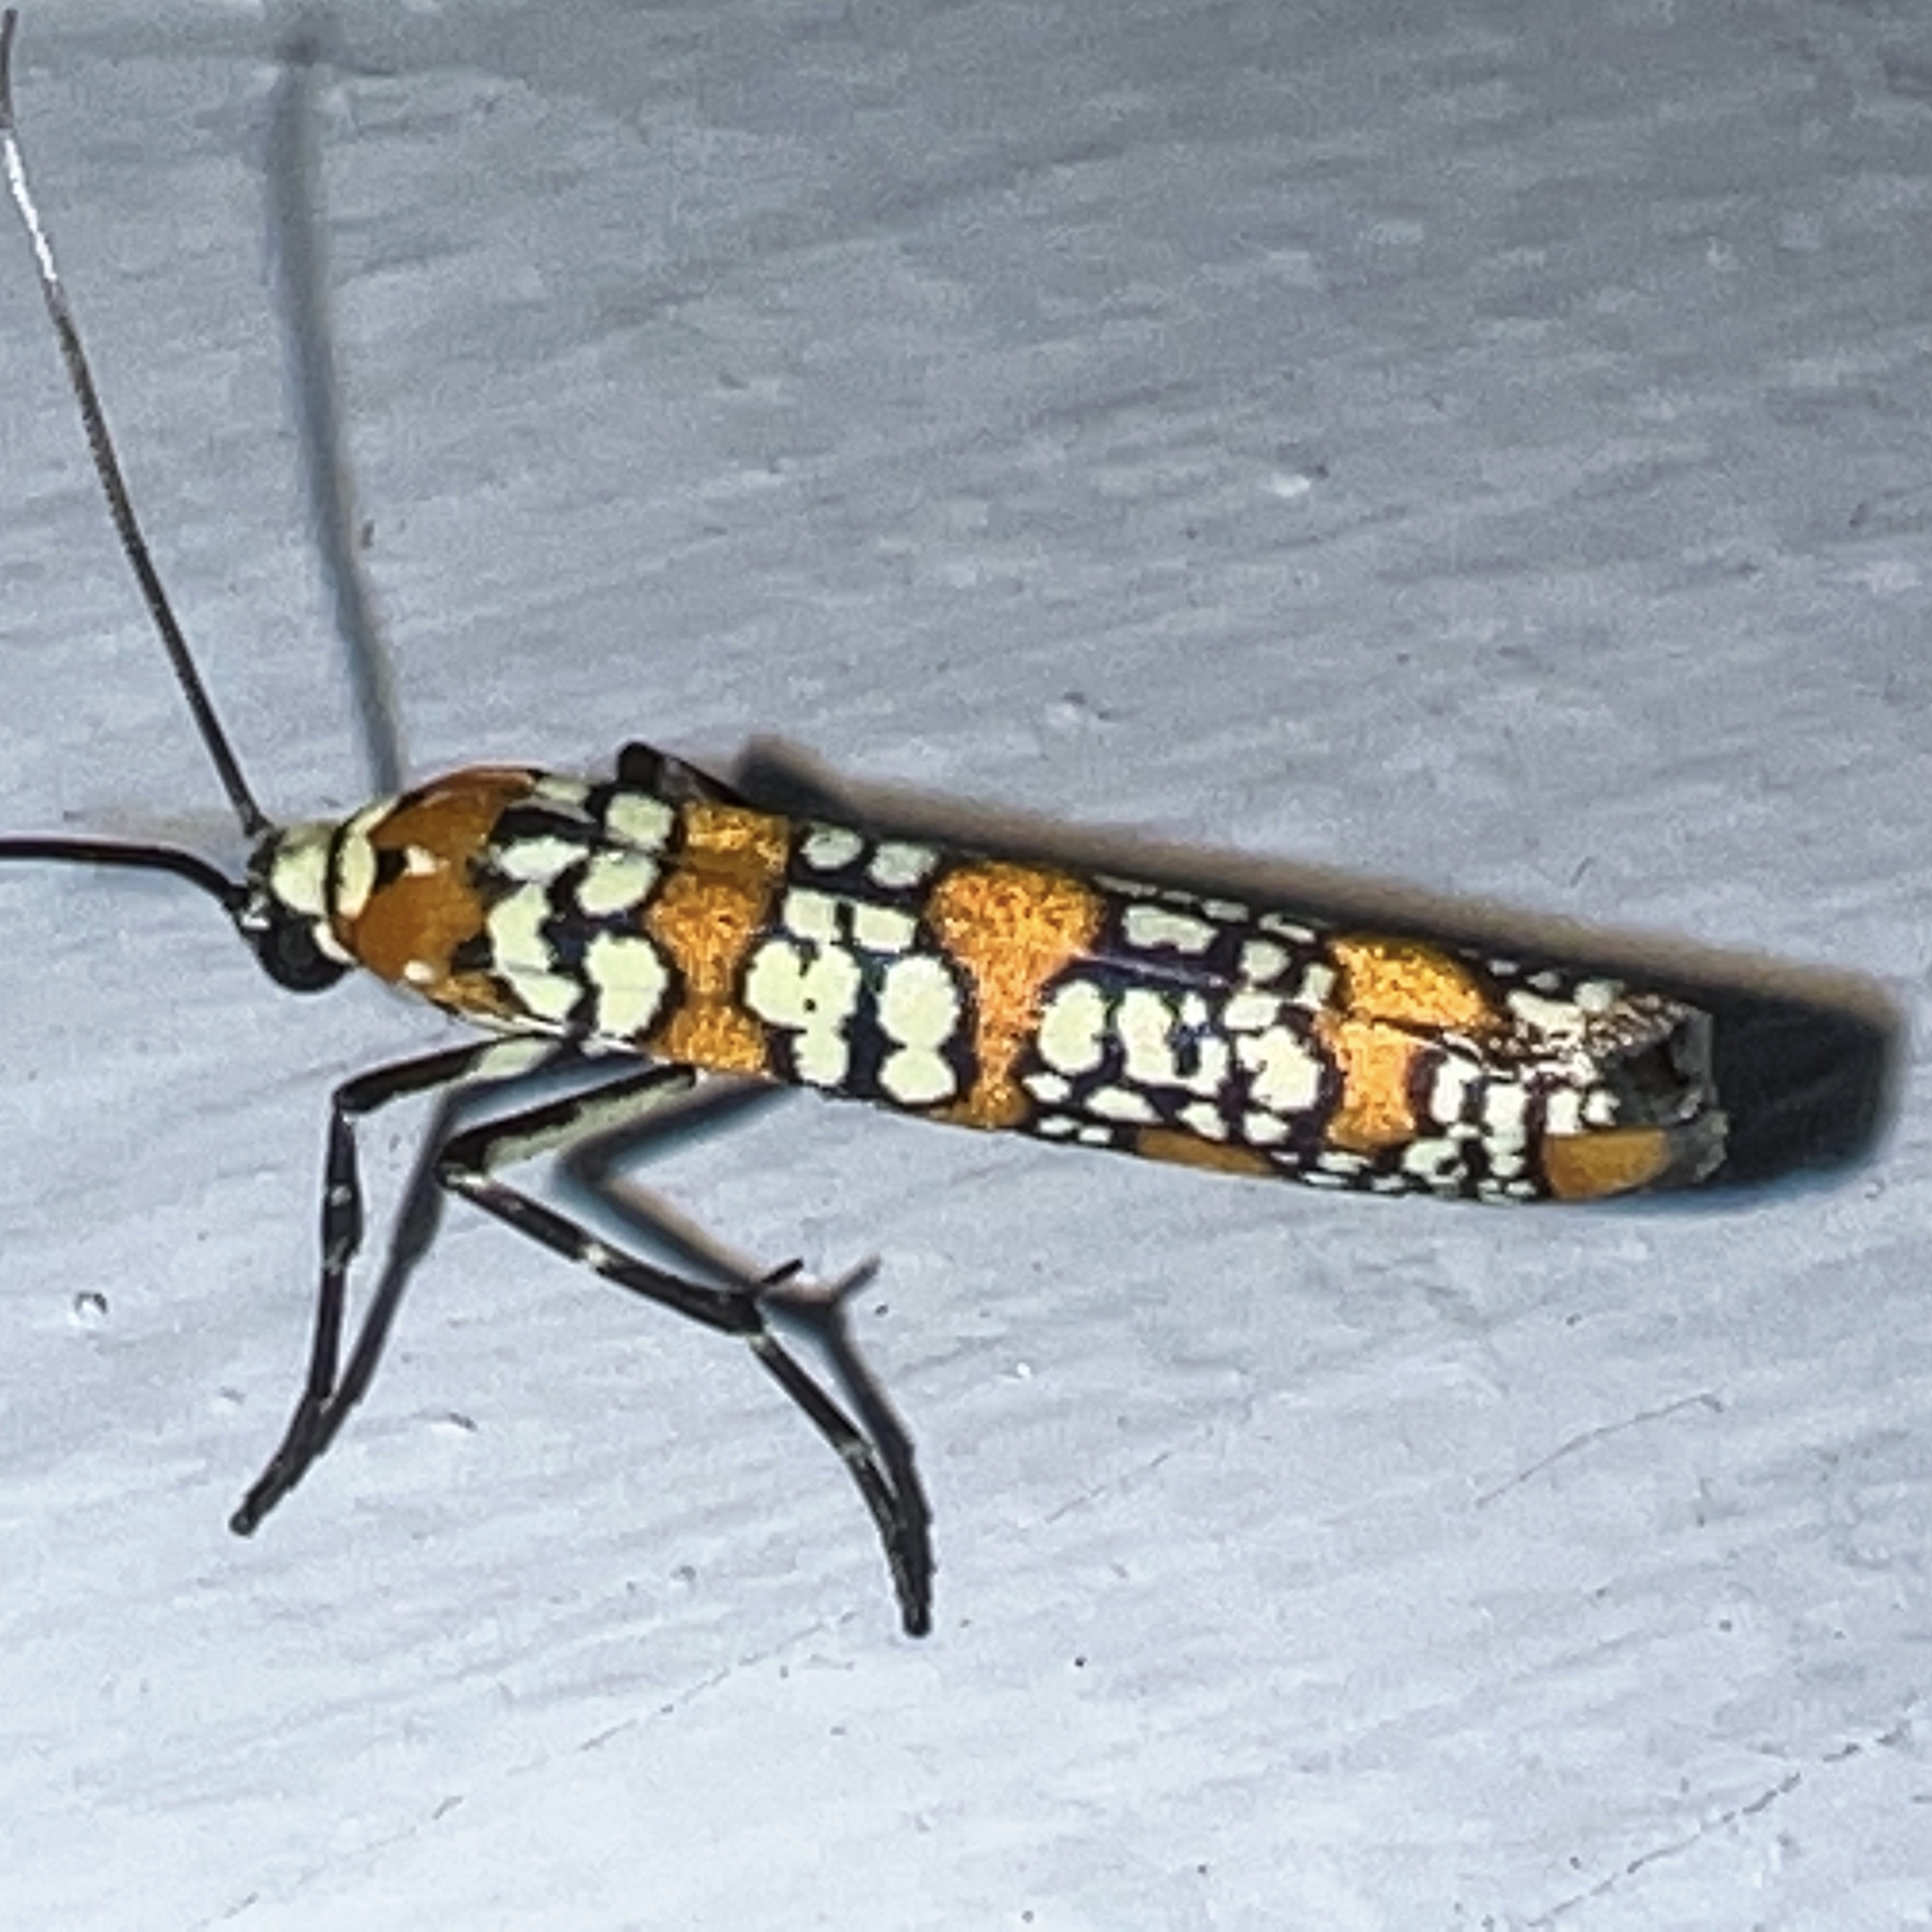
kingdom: Animalia
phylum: Arthropoda
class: Insecta
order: Lepidoptera
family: Attevidae
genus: Atteva
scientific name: Atteva punctella
